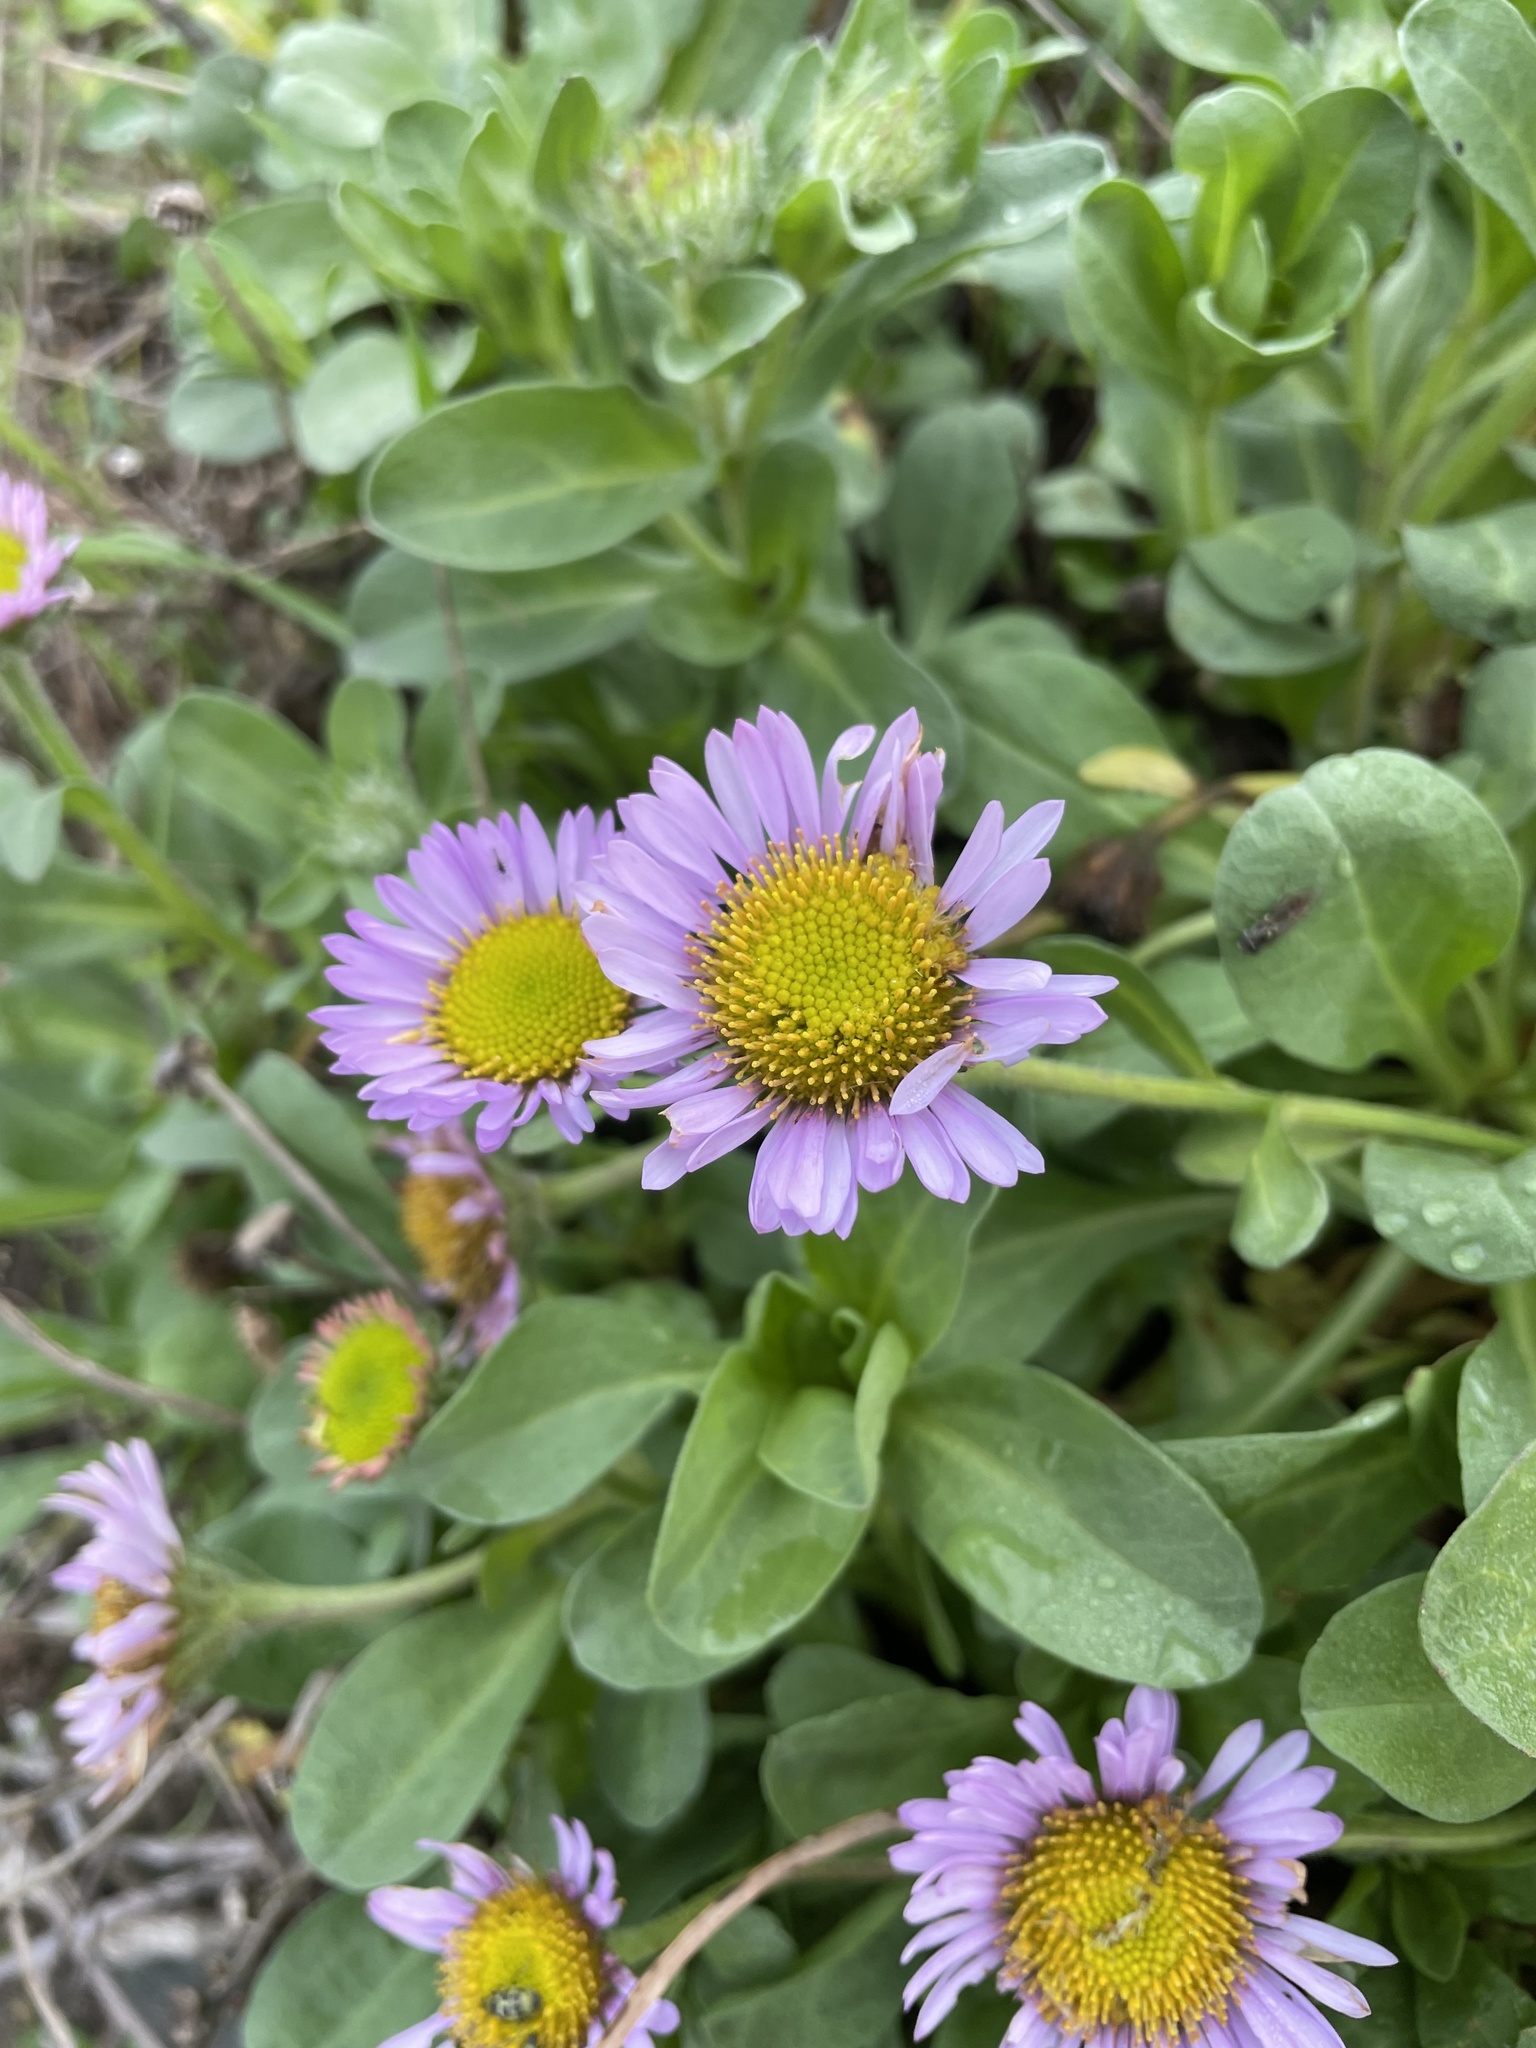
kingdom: Plantae
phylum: Tracheophyta
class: Magnoliopsida
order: Asterales
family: Asteraceae
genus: Erigeron
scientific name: Erigeron glaucus
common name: Seaside daisy
